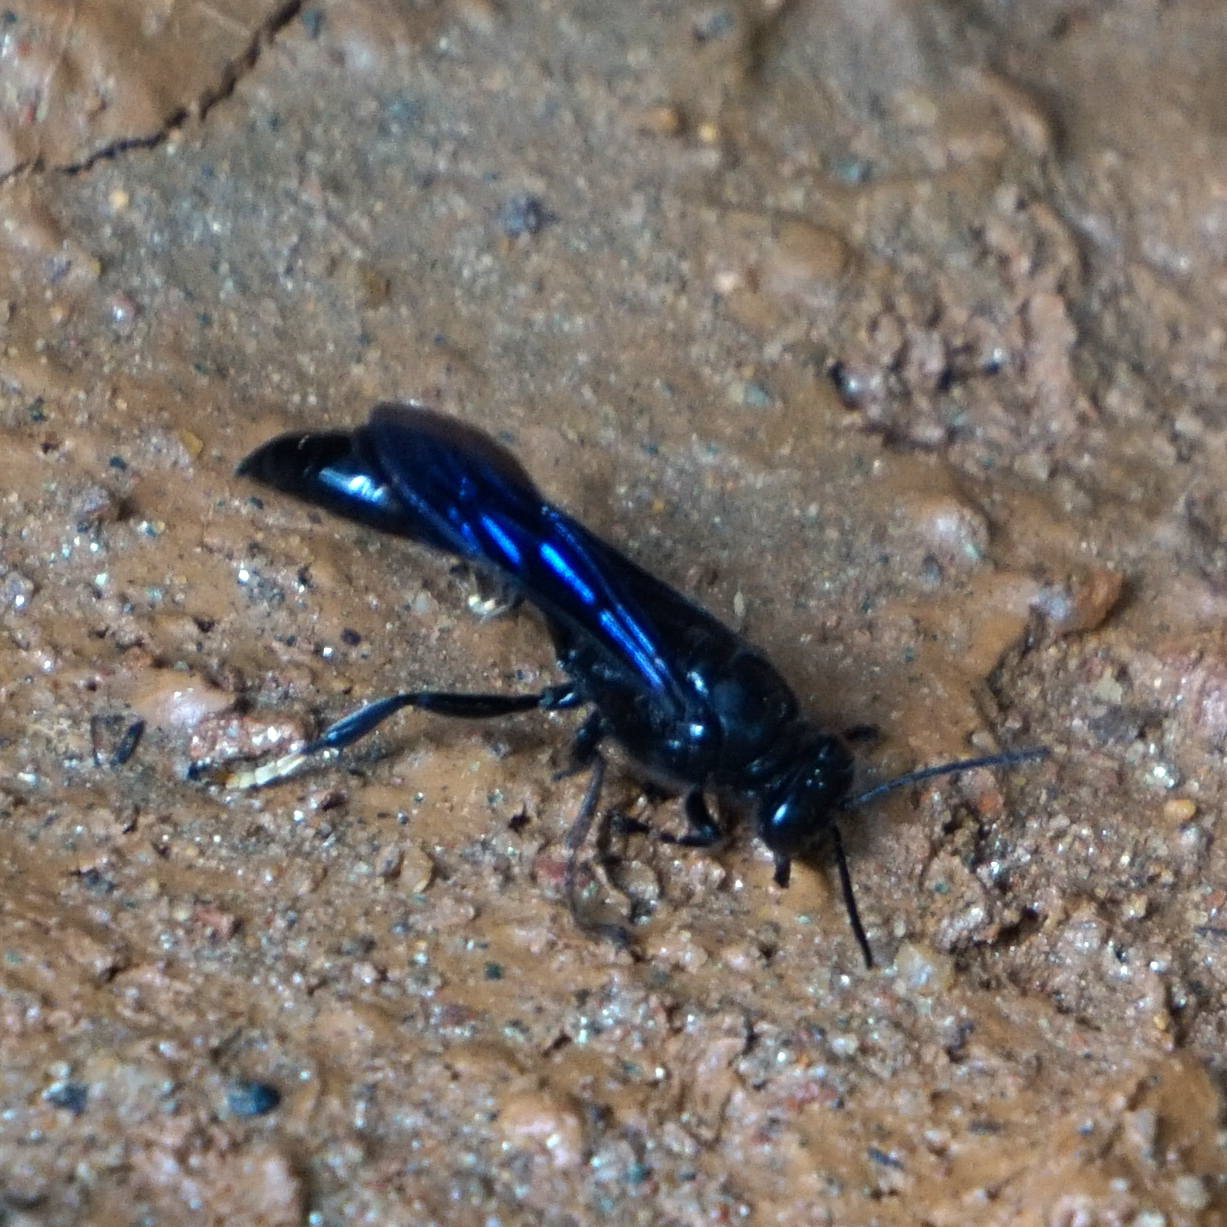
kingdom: Animalia
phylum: Arthropoda
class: Insecta
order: Hymenoptera
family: Crabronidae
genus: Trypoxylon
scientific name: Trypoxylon politum
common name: Organ-pipe mud-dauber wasp
